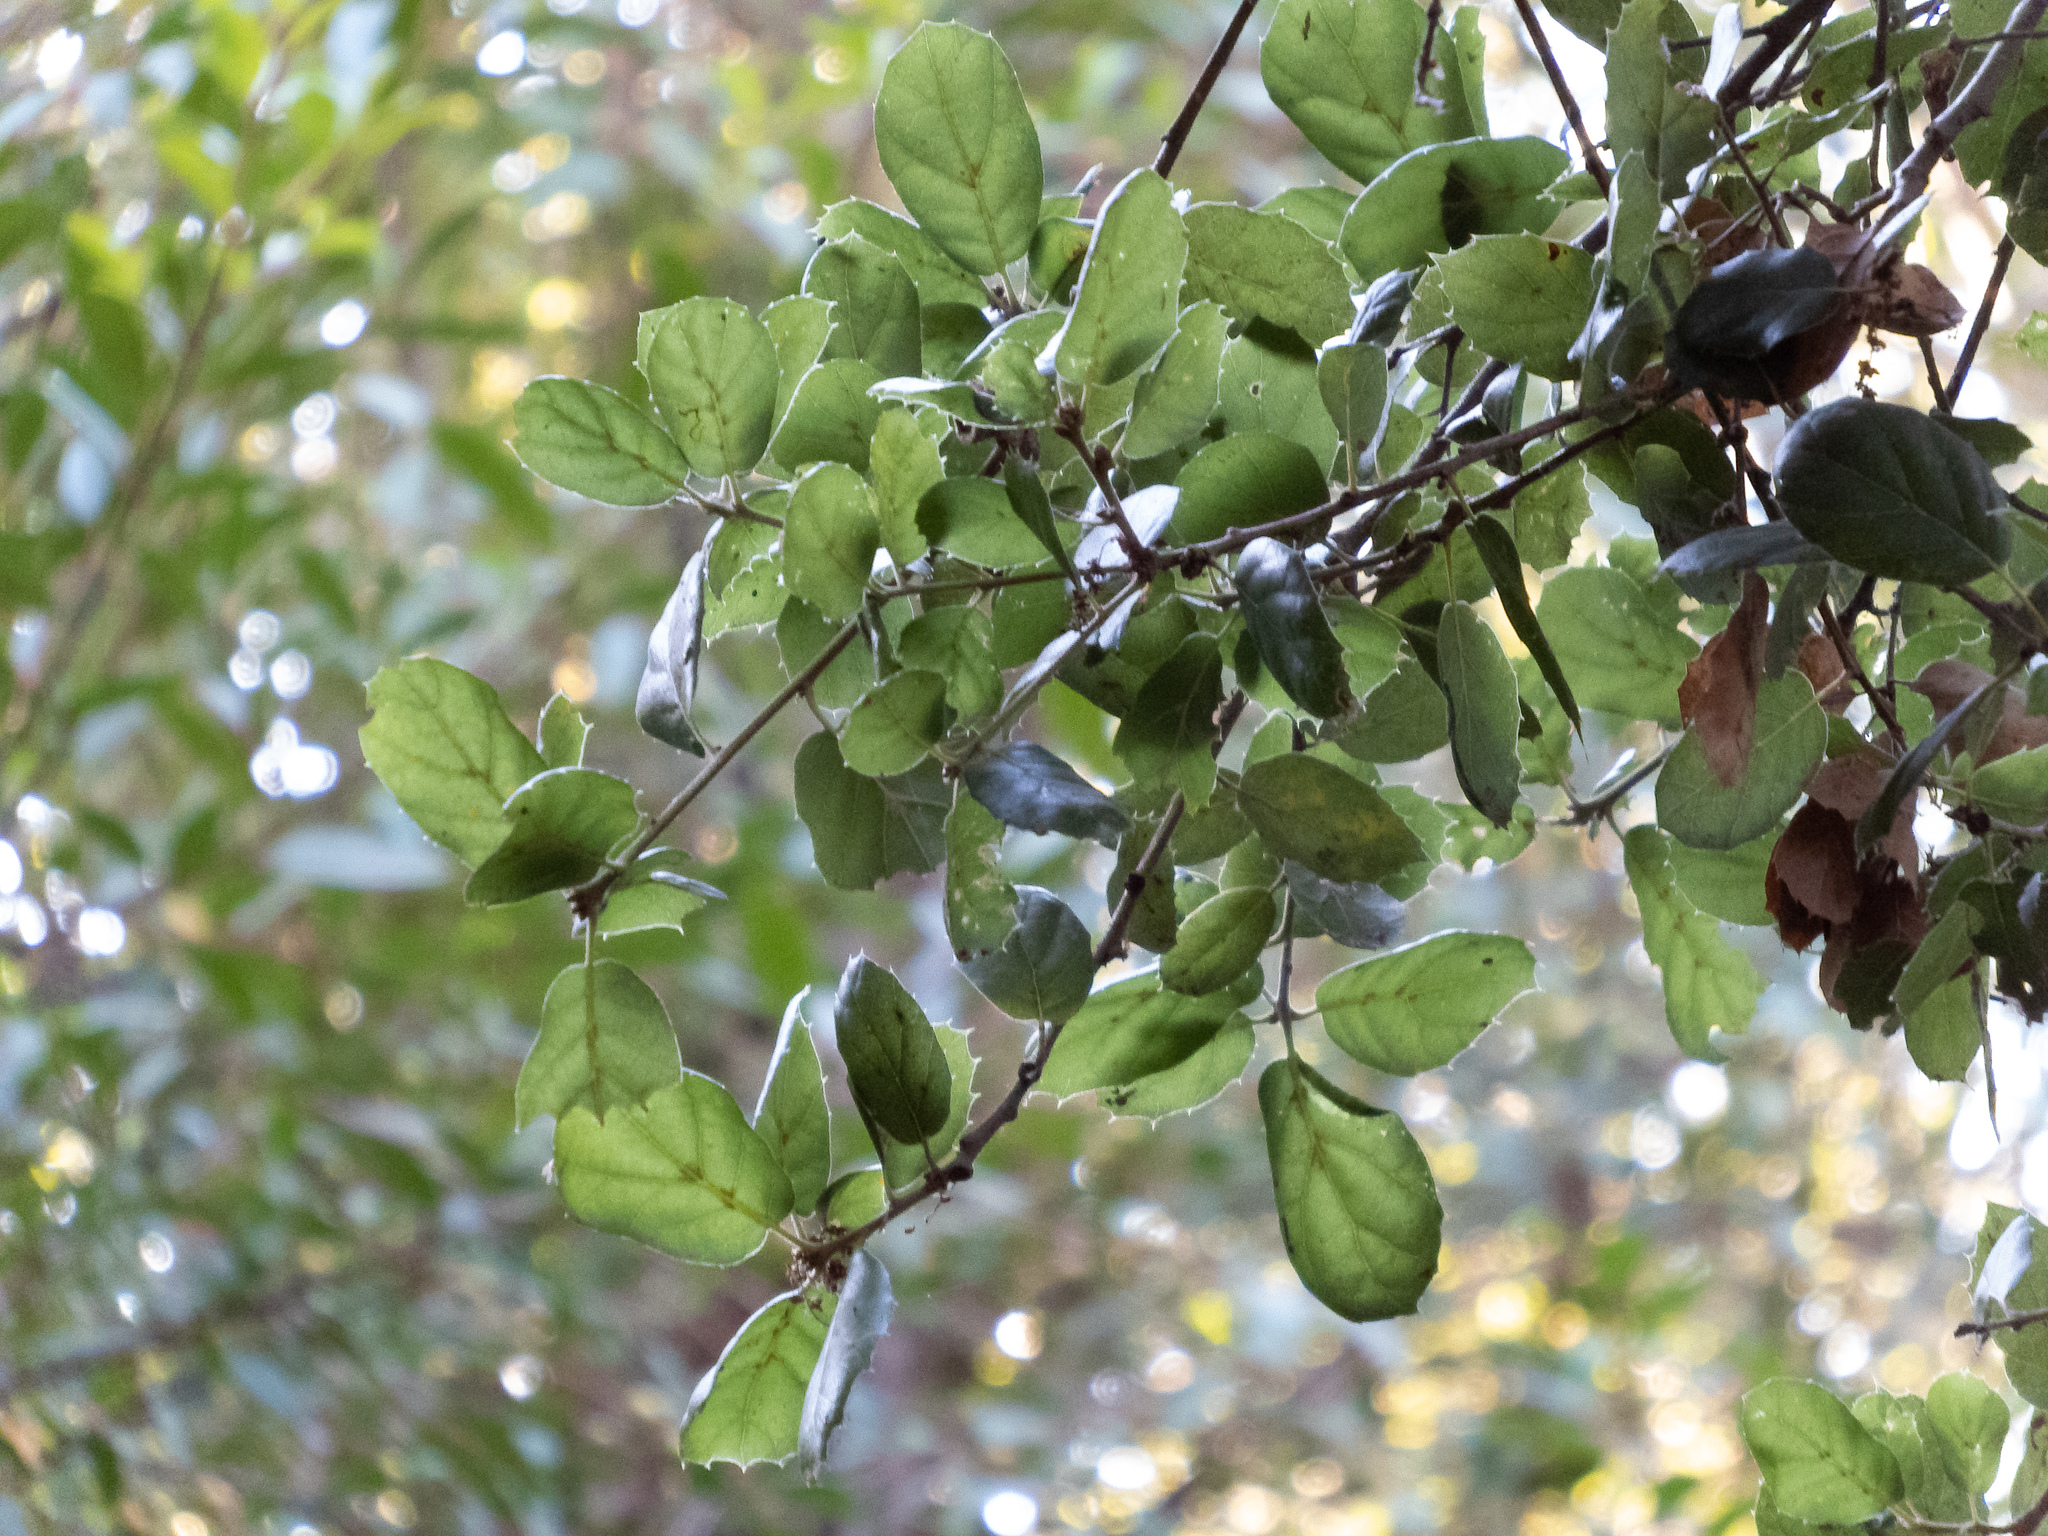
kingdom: Plantae
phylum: Tracheophyta
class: Magnoliopsida
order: Fagales
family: Fagaceae
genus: Quercus
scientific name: Quercus agrifolia
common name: California live oak
